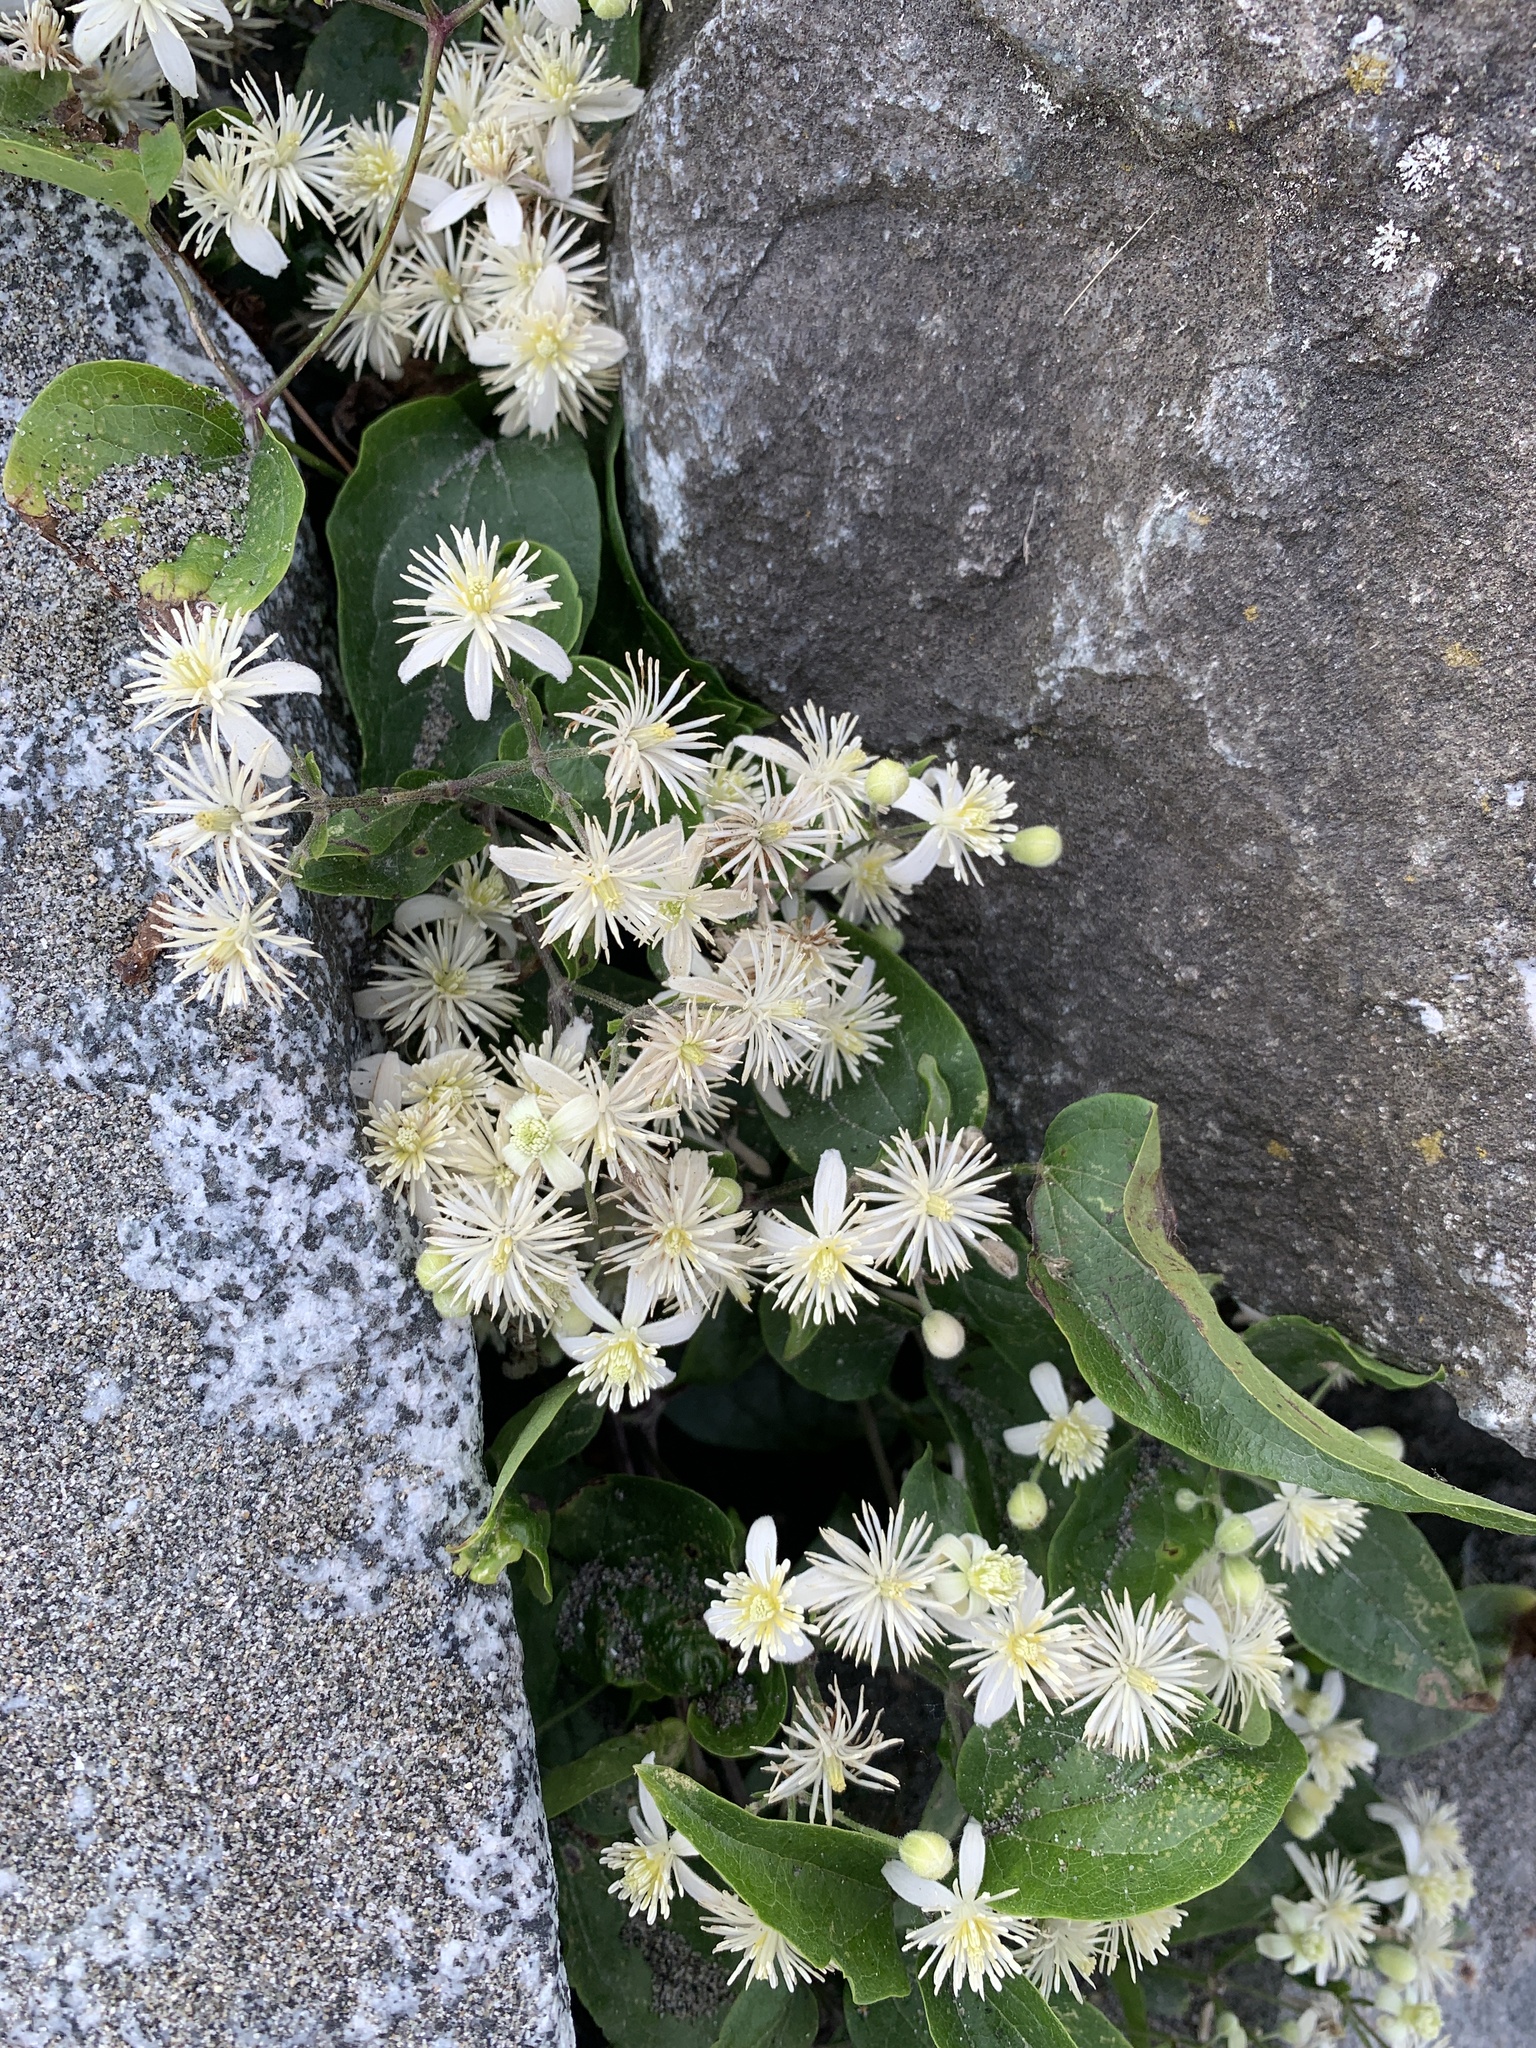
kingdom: Plantae
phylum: Tracheophyta
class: Magnoliopsida
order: Ranunculales
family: Ranunculaceae
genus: Clematis
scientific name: Clematis vitalba
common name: Evergreen clematis
